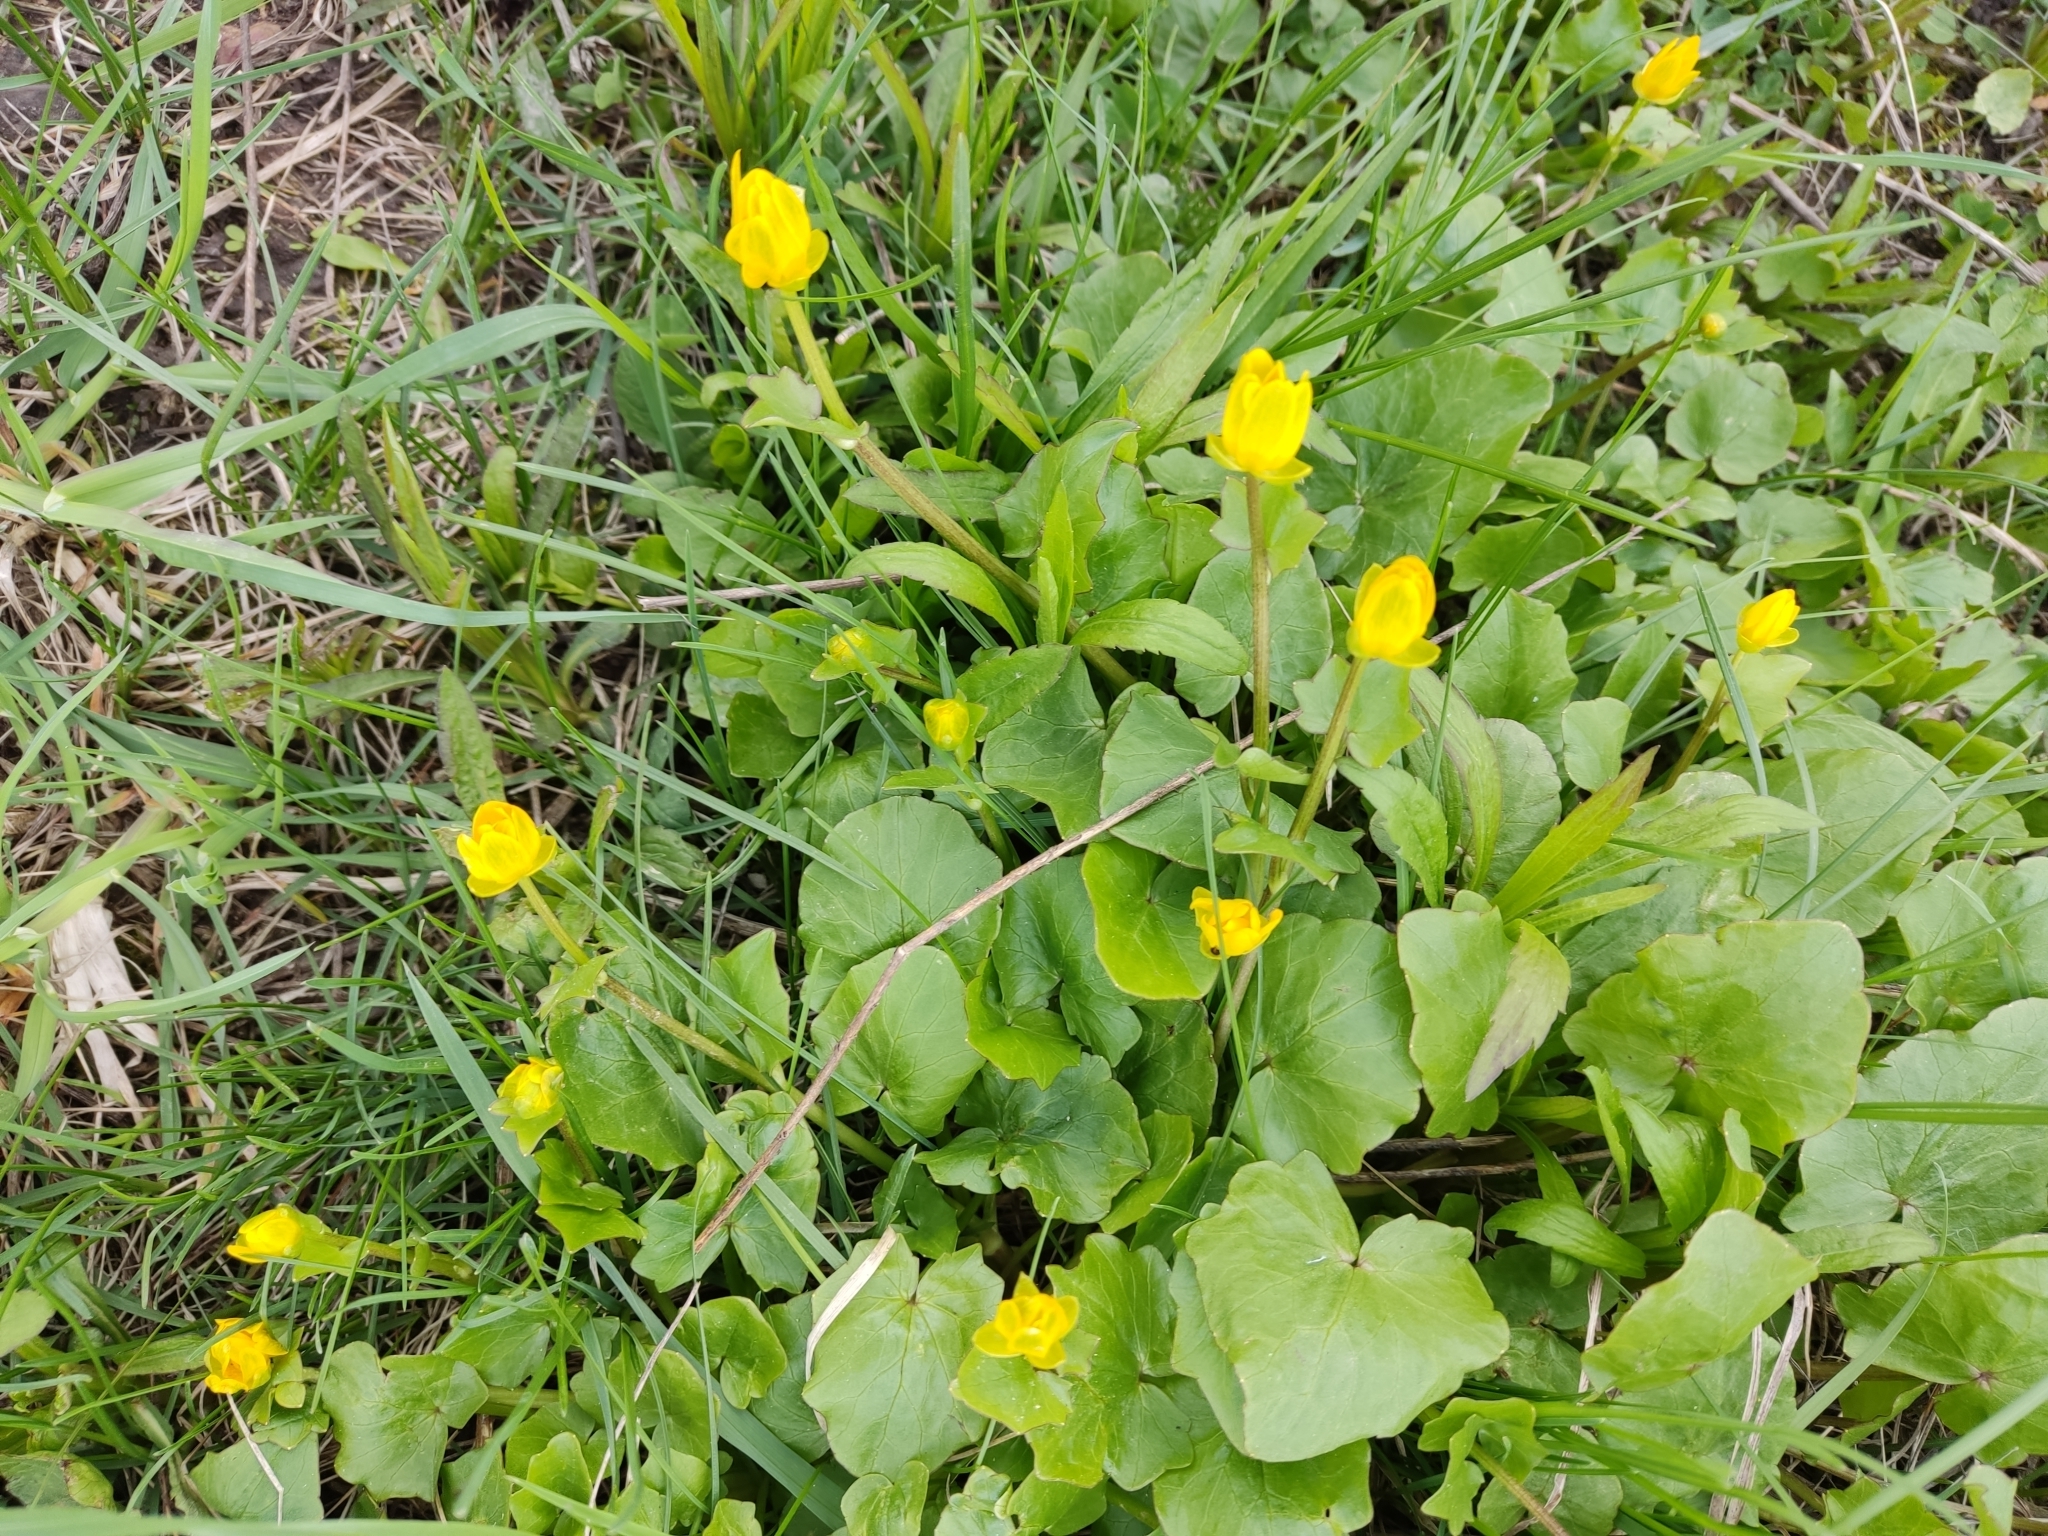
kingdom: Plantae
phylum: Tracheophyta
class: Magnoliopsida
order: Ranunculales
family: Ranunculaceae
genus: Ficaria
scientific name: Ficaria verna
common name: Lesser celandine
